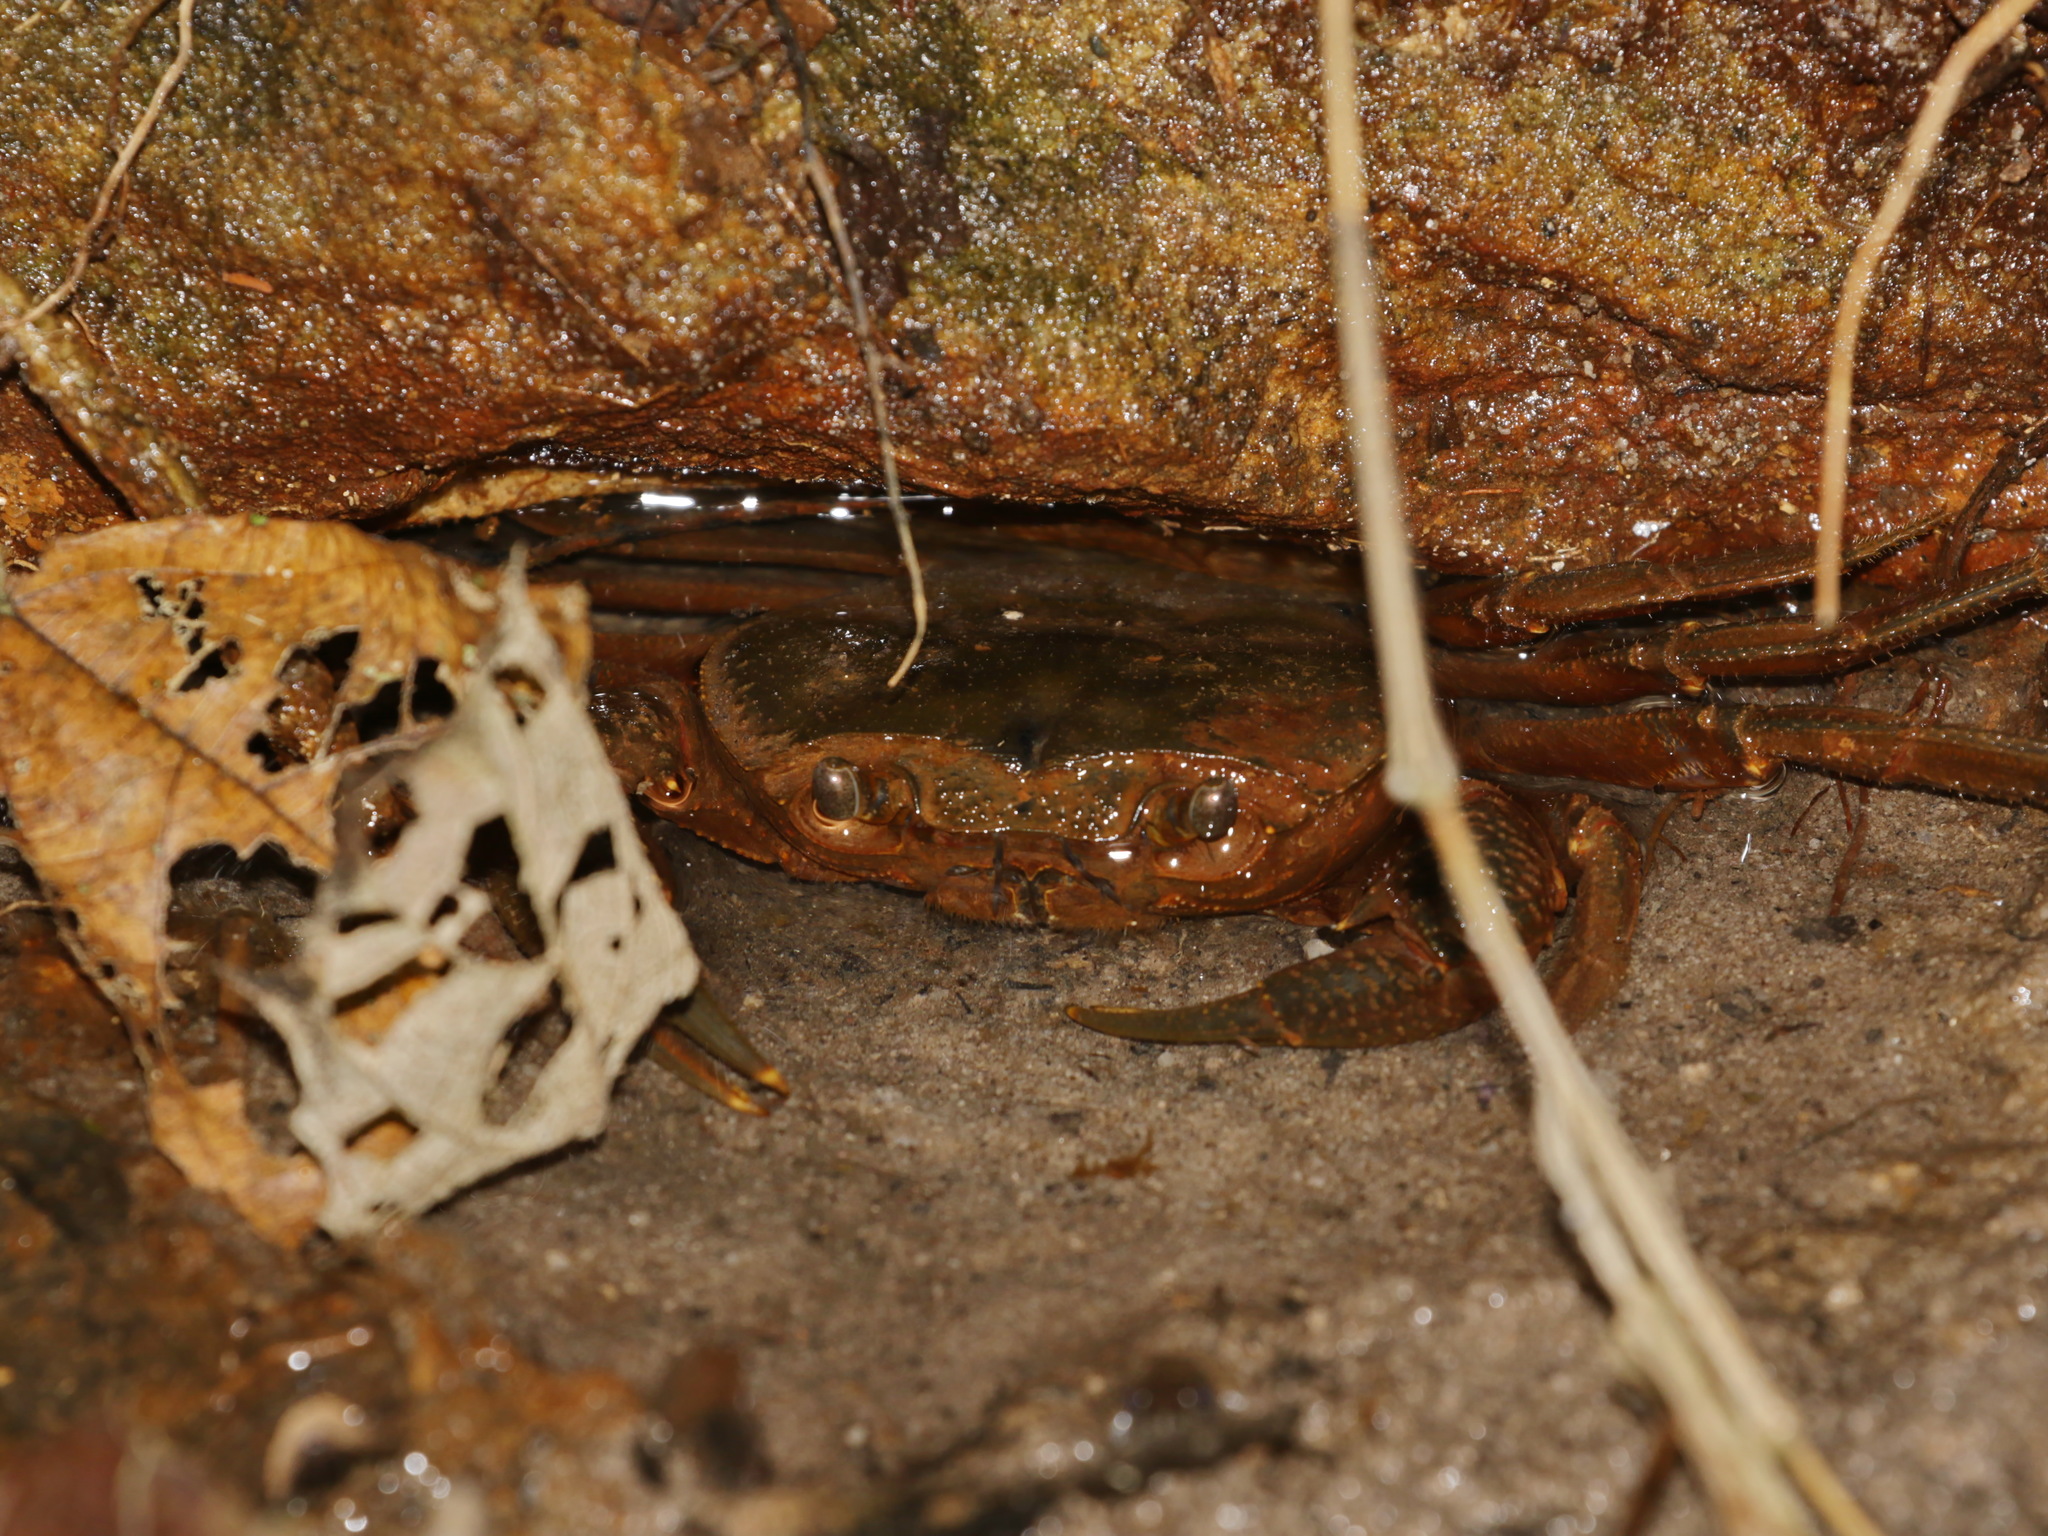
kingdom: Animalia
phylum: Arthropoda
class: Malacostraca
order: Decapoda
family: Potamidae
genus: Eosamon
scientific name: Eosamon hafniense
